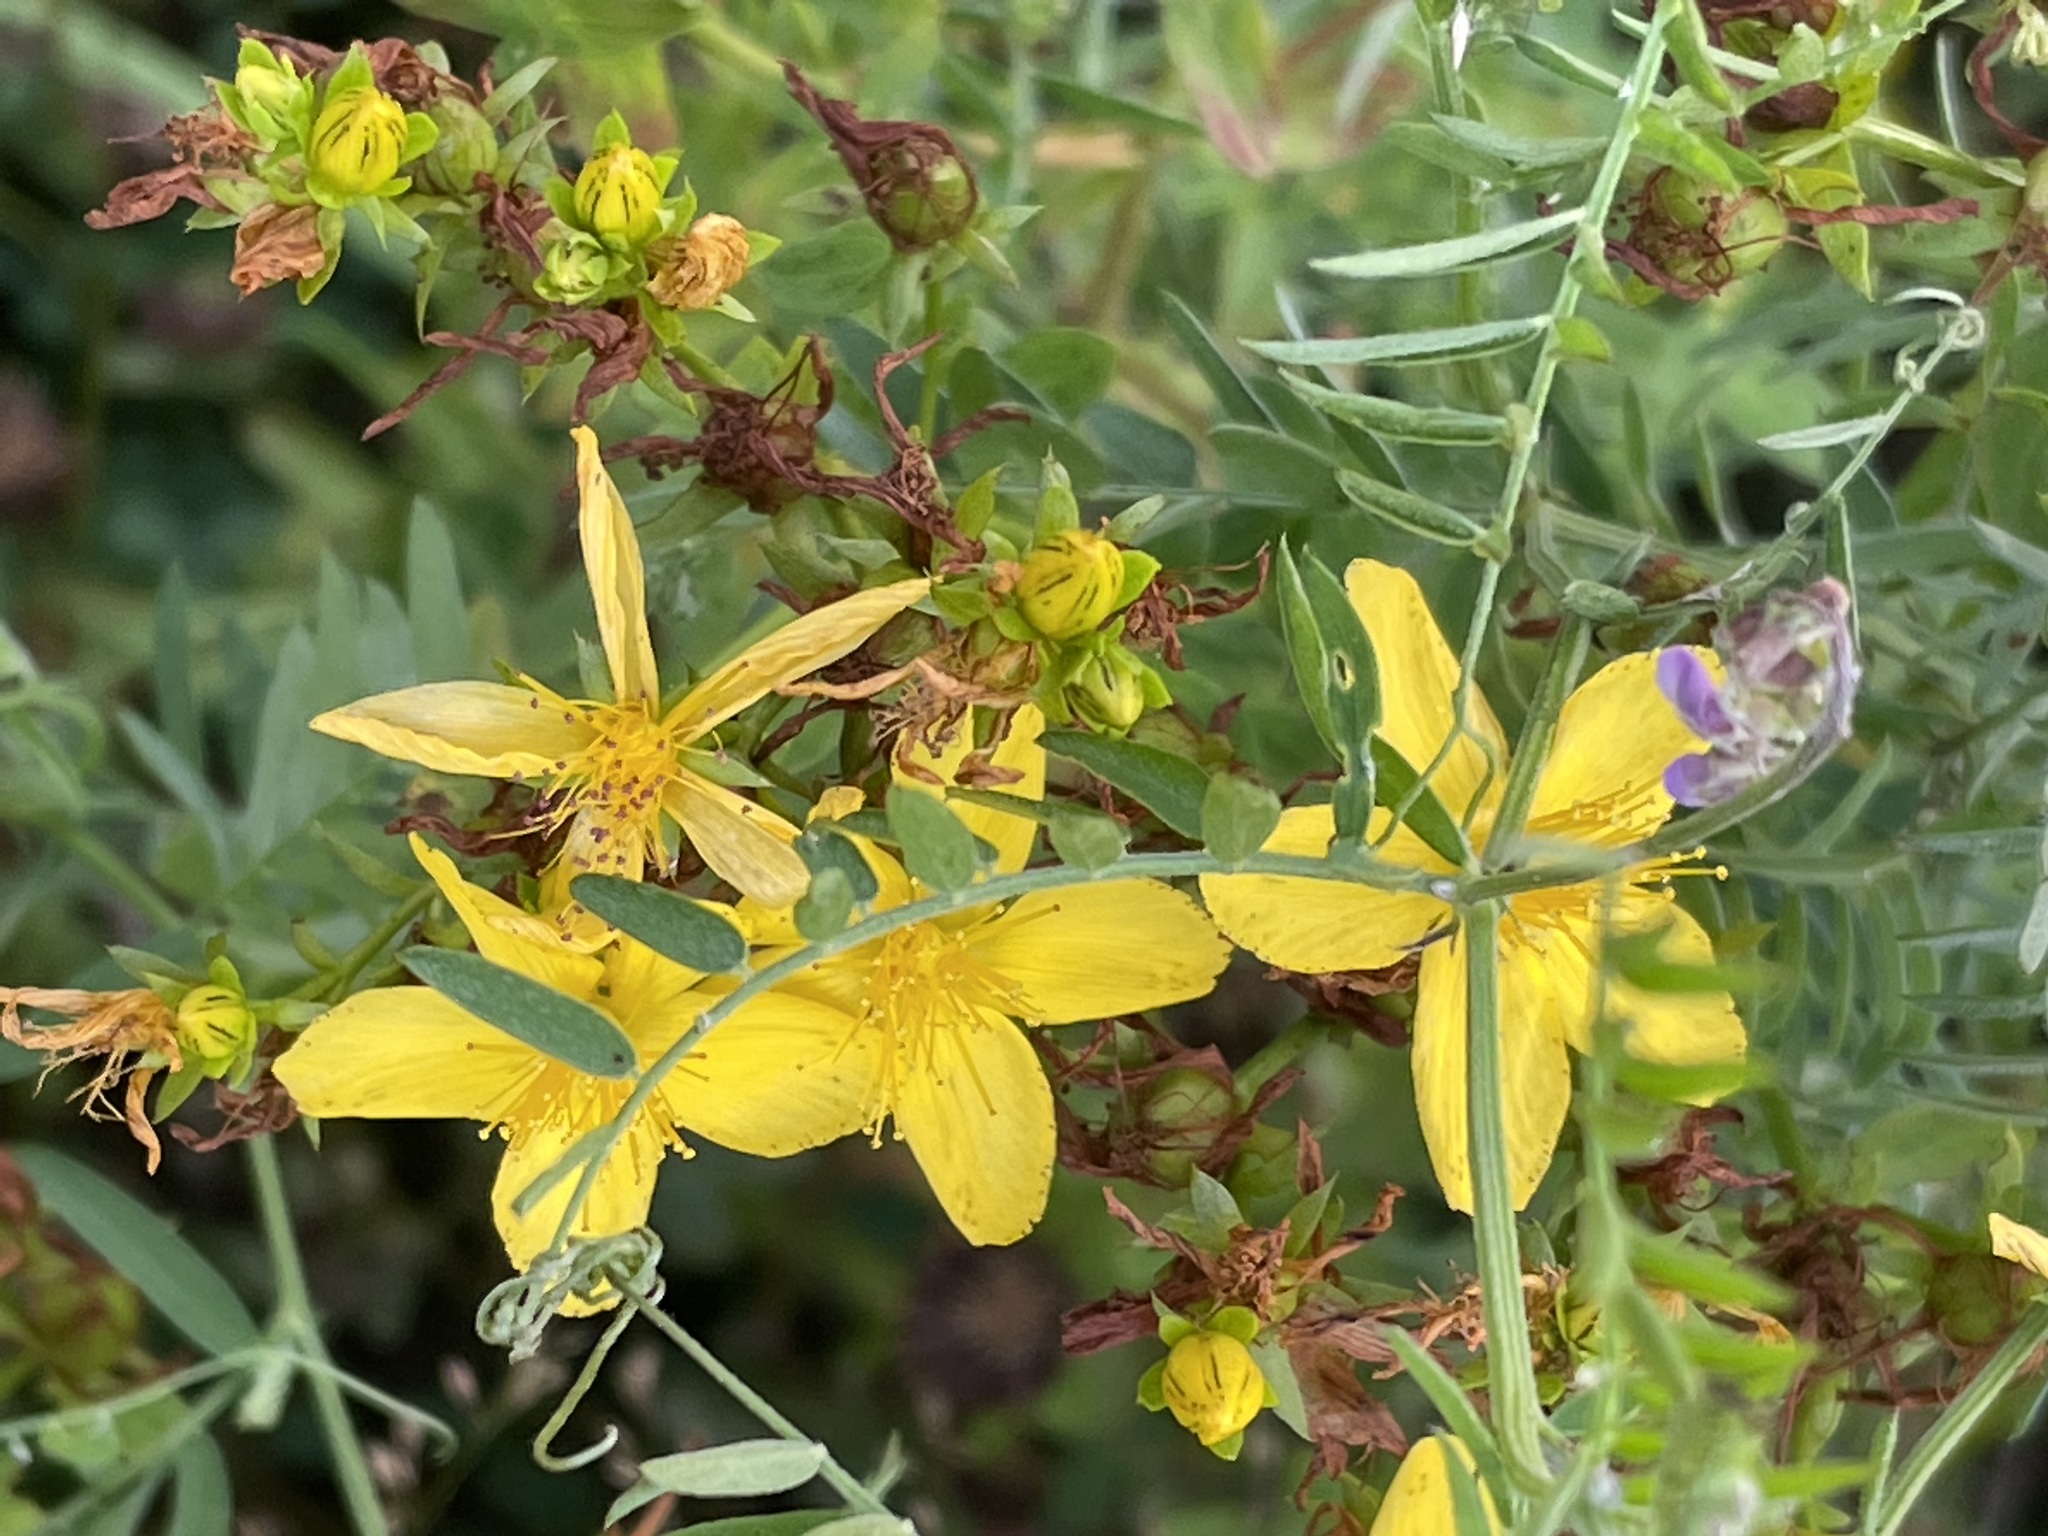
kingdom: Plantae
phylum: Tracheophyta
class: Magnoliopsida
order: Malpighiales
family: Hypericaceae
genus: Hypericum
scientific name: Hypericum perforatum
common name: Common st. johnswort
